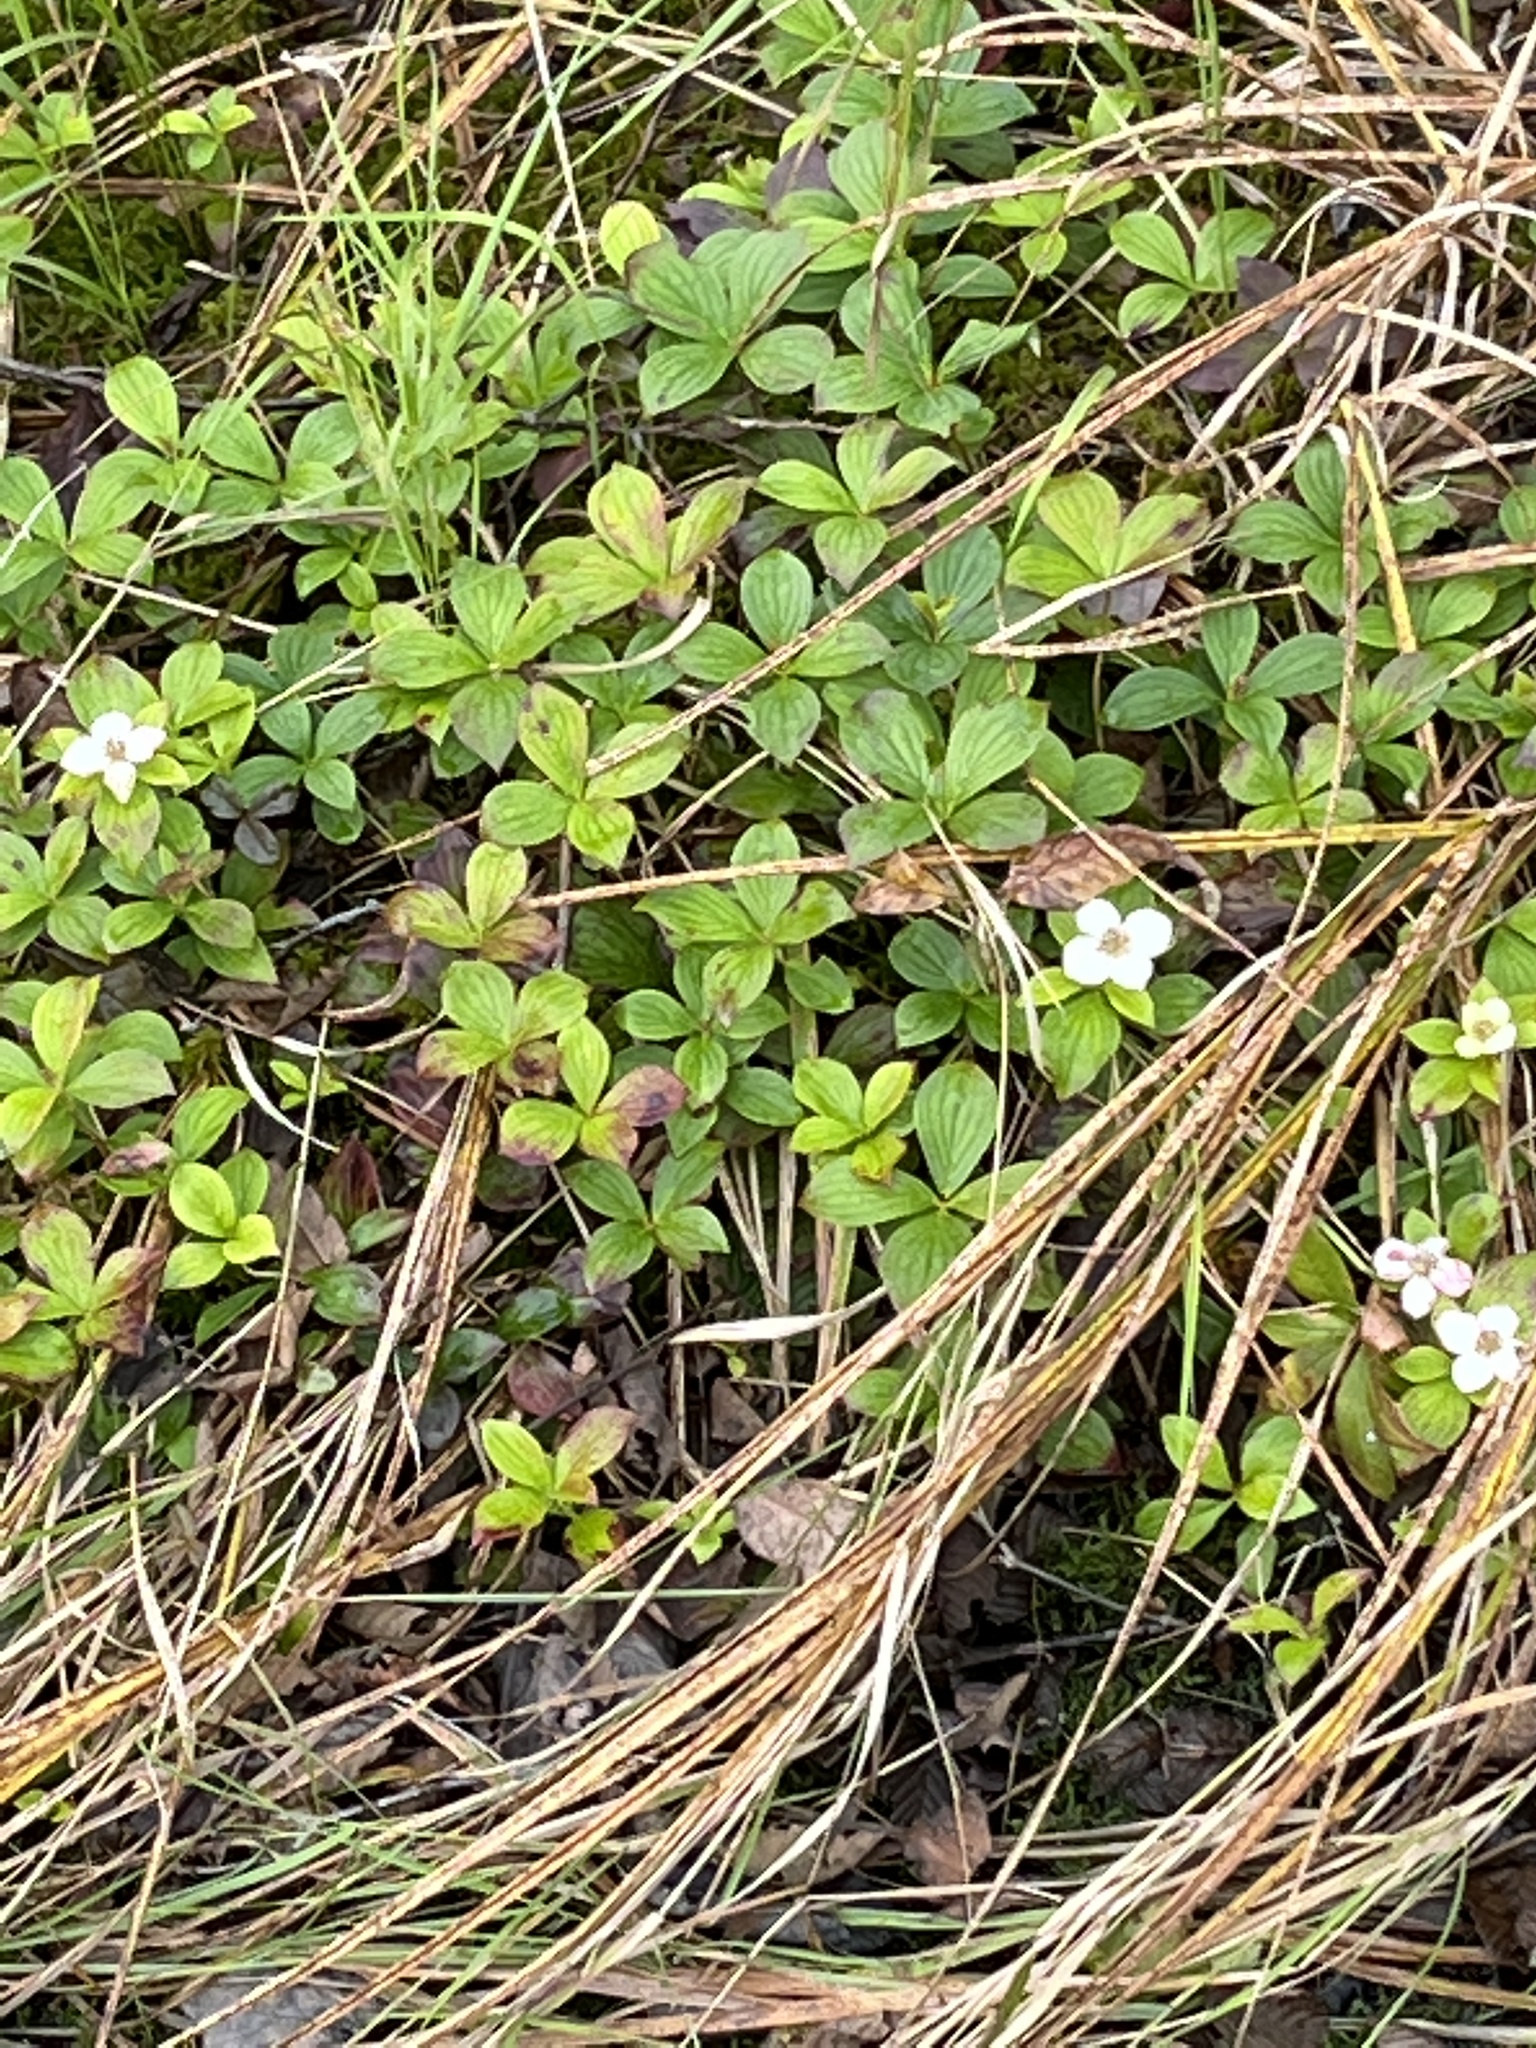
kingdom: Plantae
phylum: Tracheophyta
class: Magnoliopsida
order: Cornales
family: Cornaceae
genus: Cornus
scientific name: Cornus canadensis
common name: Creeping dogwood
